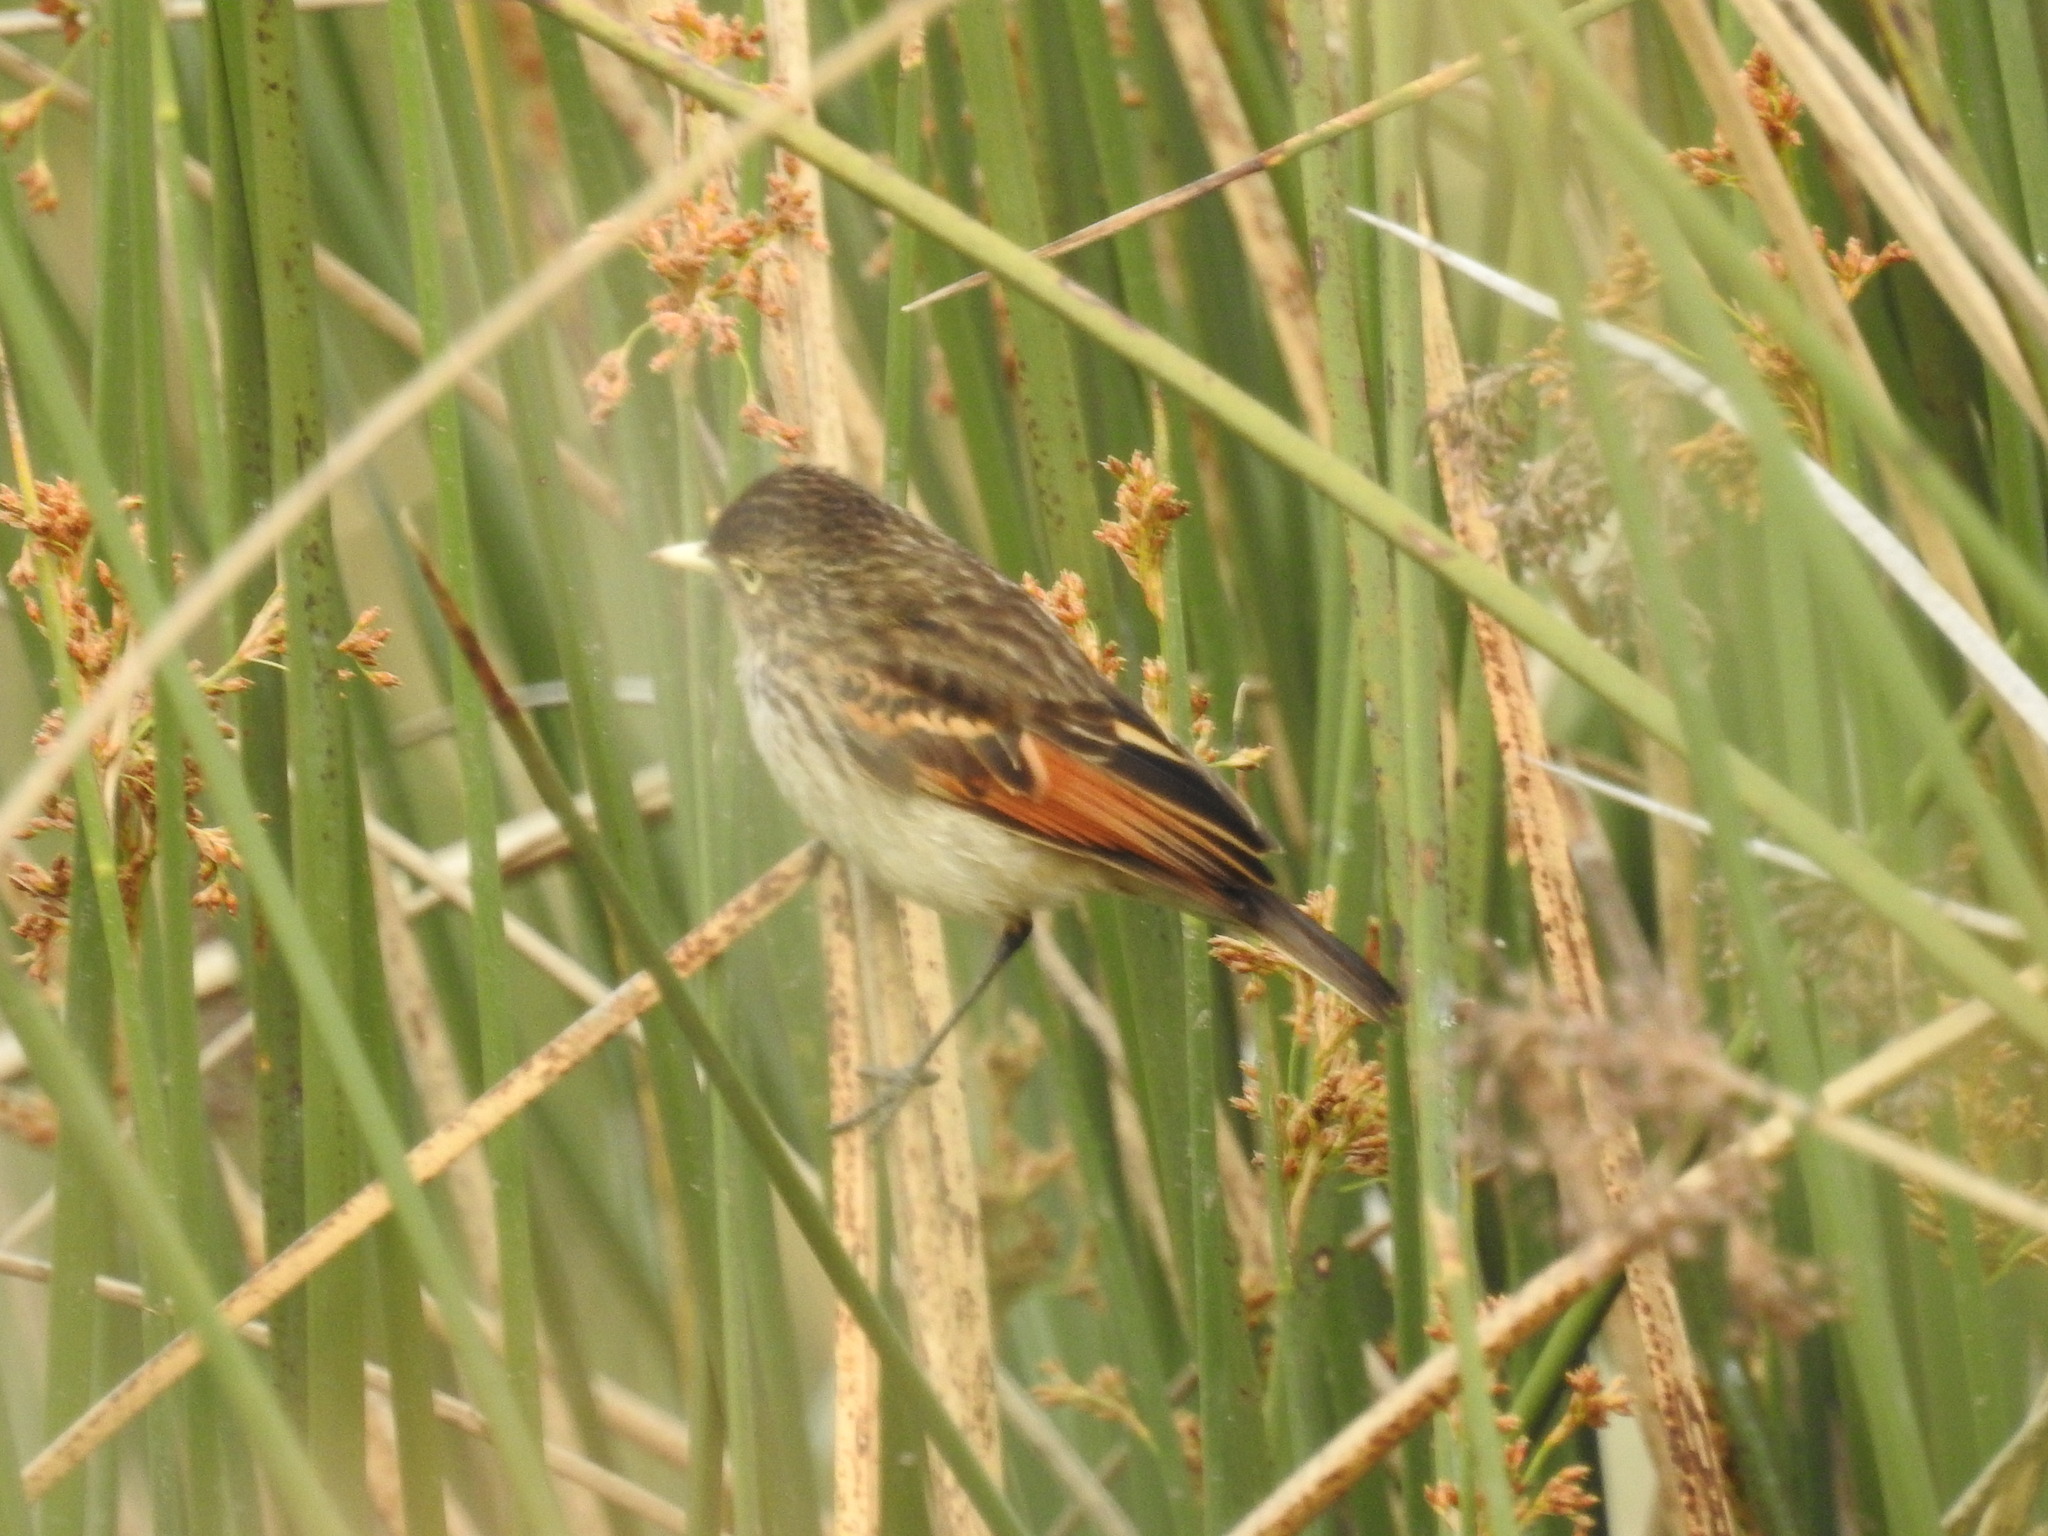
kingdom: Animalia
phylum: Chordata
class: Aves
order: Passeriformes
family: Tyrannidae
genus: Hymenops
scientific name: Hymenops perspicillatus
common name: Spectacled tyrant
